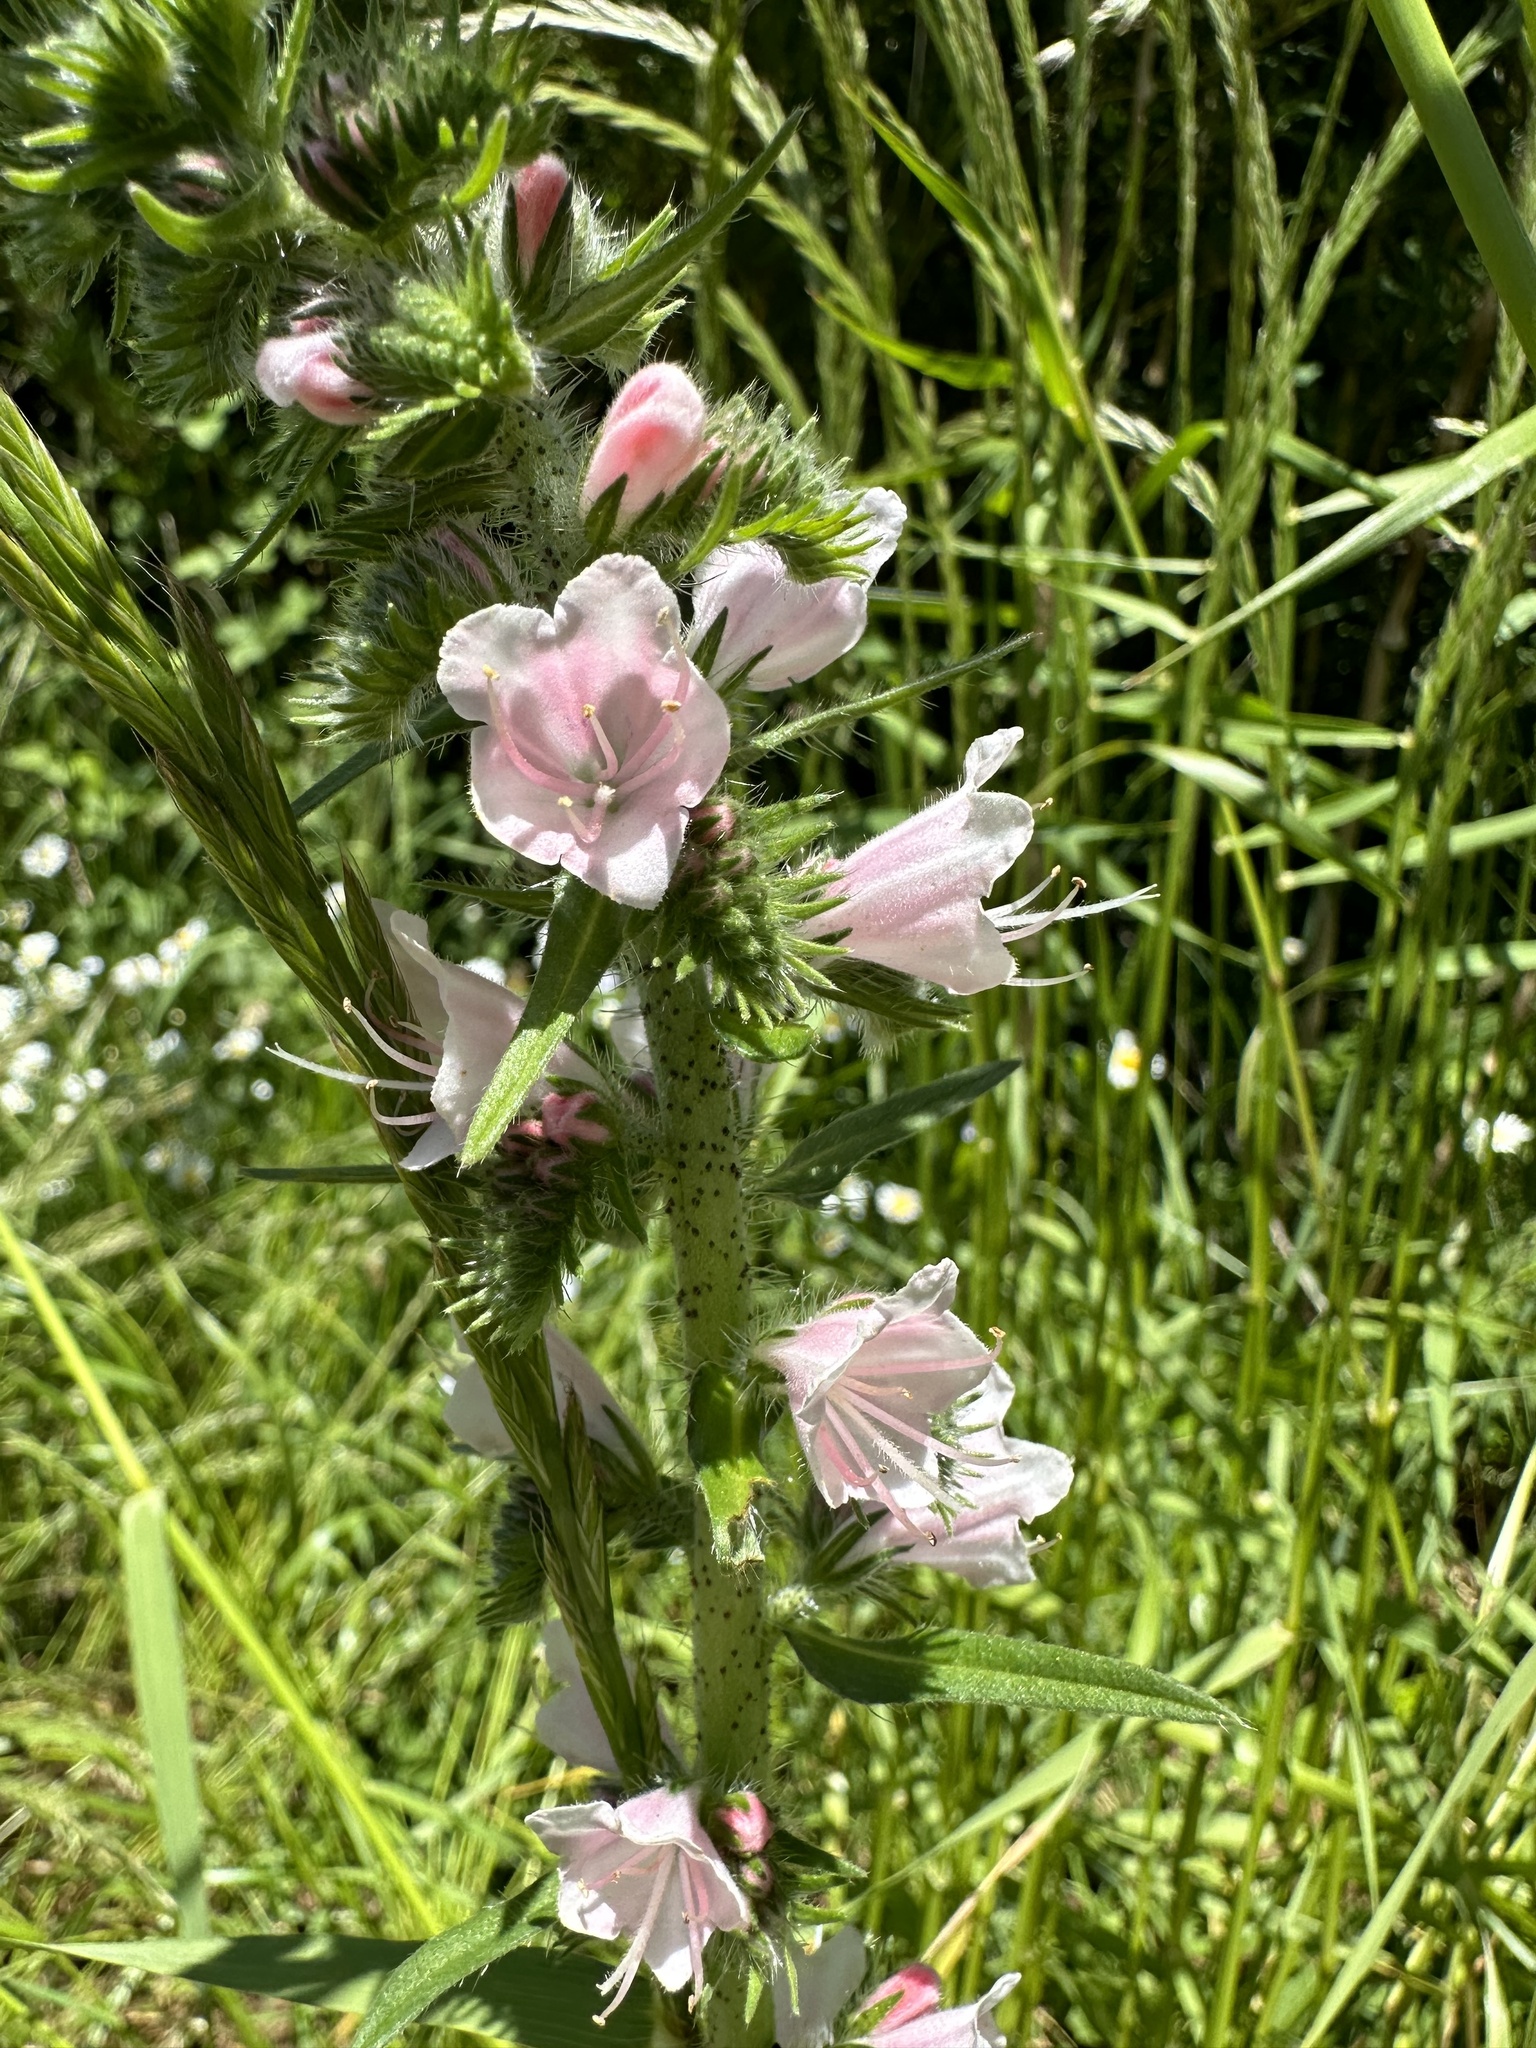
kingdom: Plantae
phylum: Tracheophyta
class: Magnoliopsida
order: Boraginales
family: Boraginaceae
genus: Echium
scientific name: Echium vulgare
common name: Common viper's bugloss
